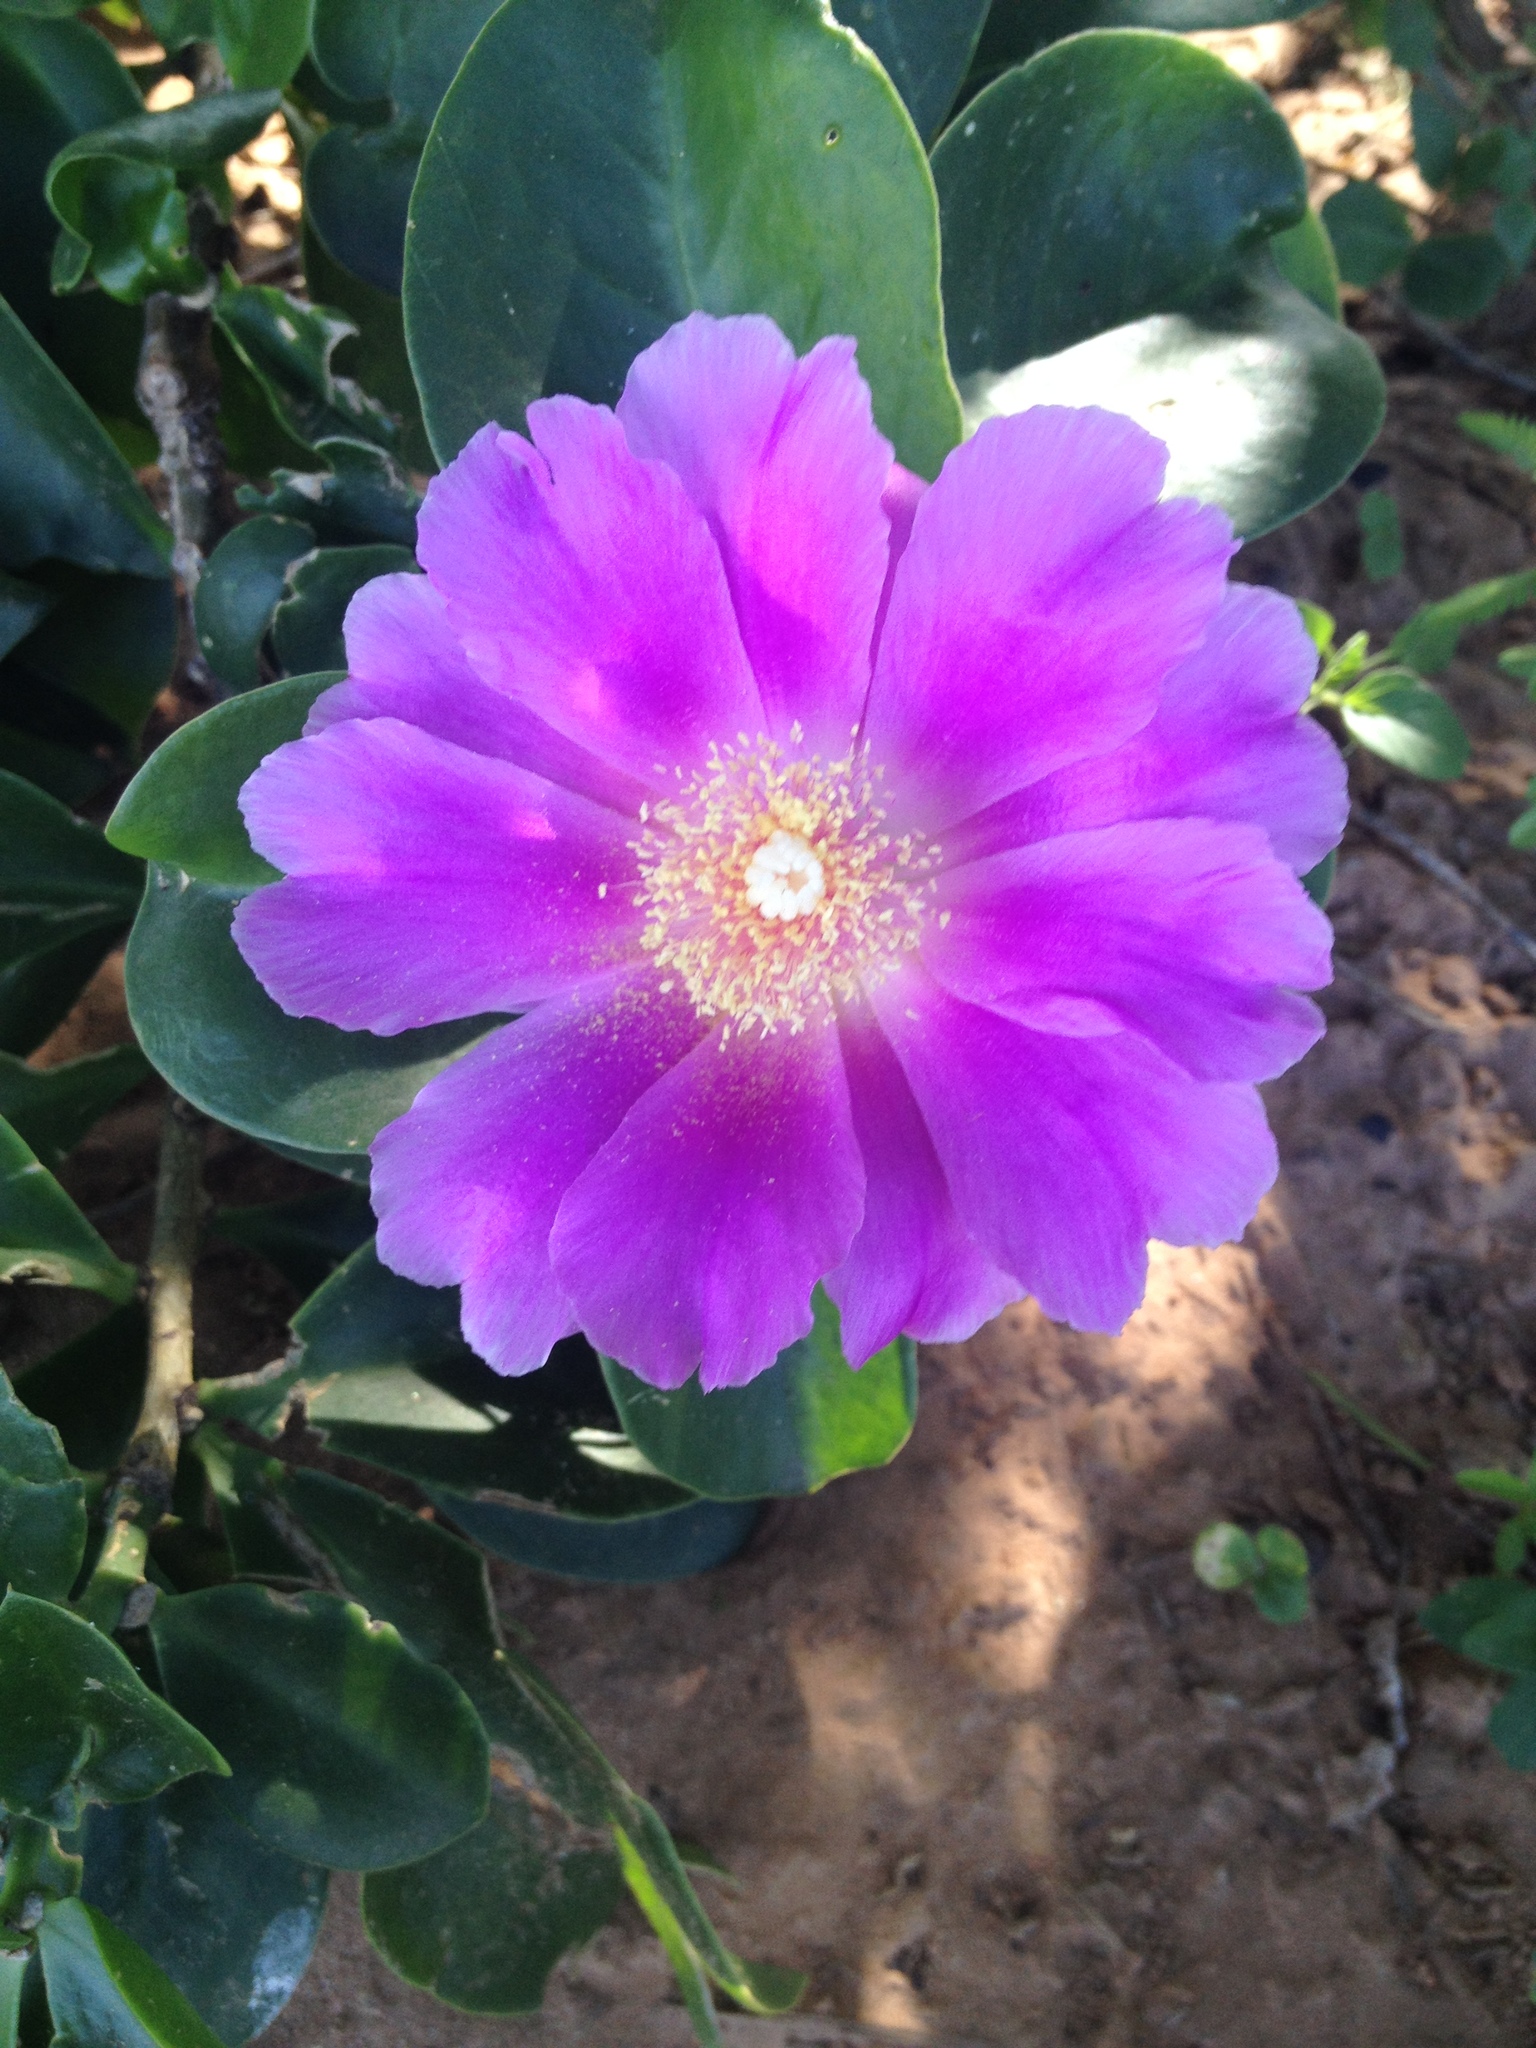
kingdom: Plantae
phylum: Tracheophyta
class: Magnoliopsida
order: Caryophyllales
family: Cactaceae
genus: Pereskia
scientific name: Pereskia sacharosa
